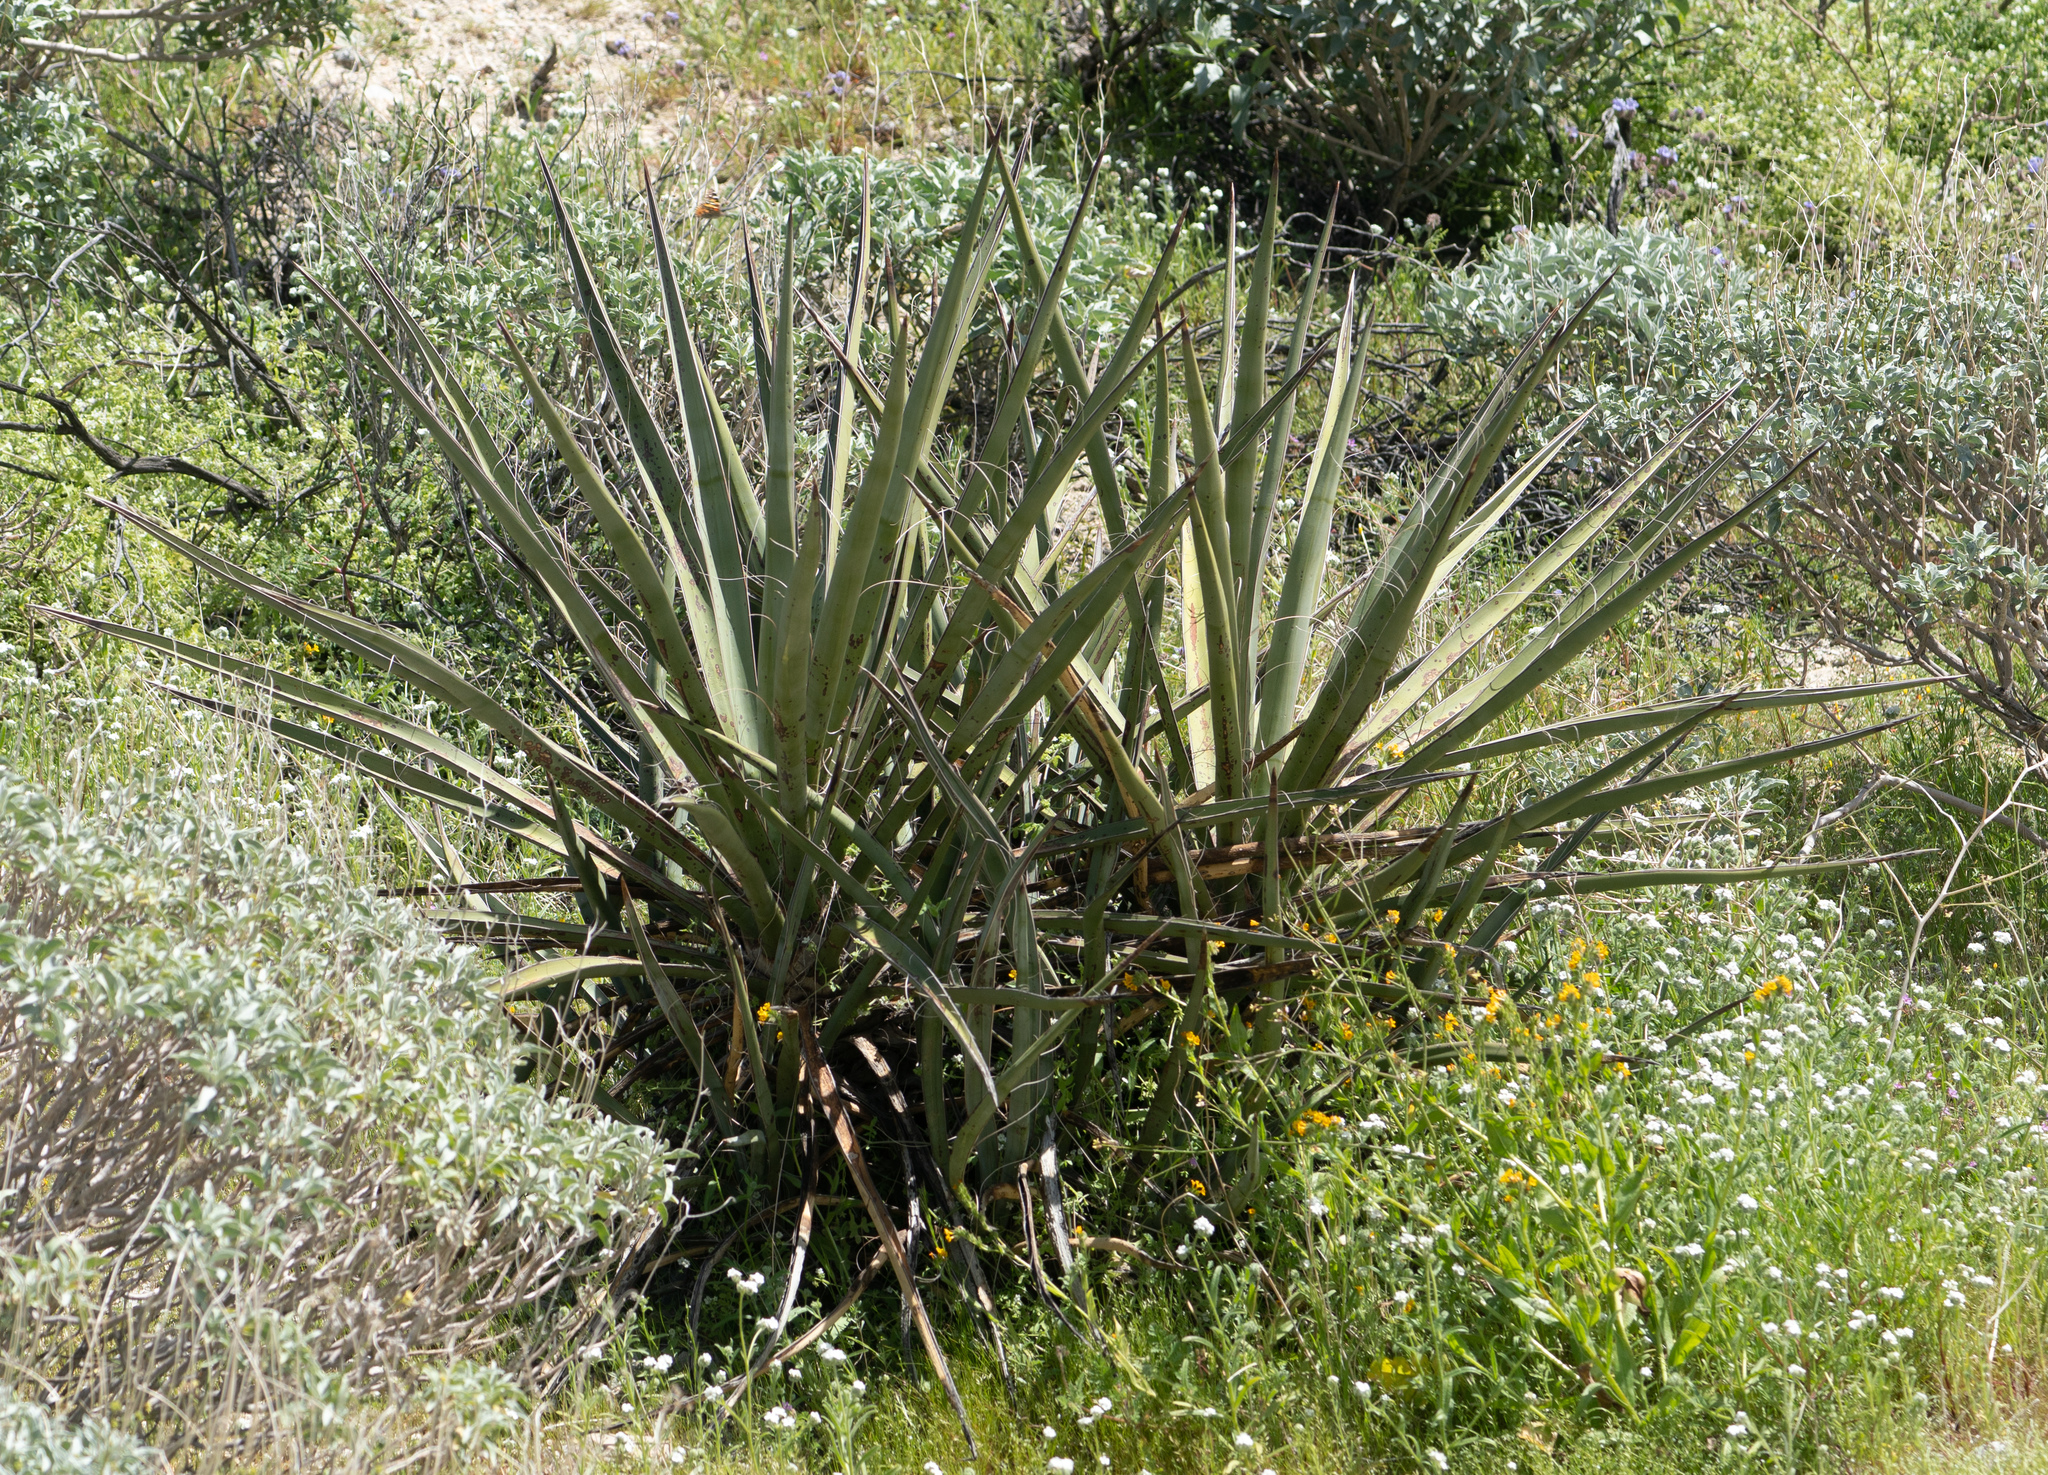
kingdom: Plantae
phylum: Tracheophyta
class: Liliopsida
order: Asparagales
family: Asparagaceae
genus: Yucca
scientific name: Yucca schidigera
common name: Mojave yucca
